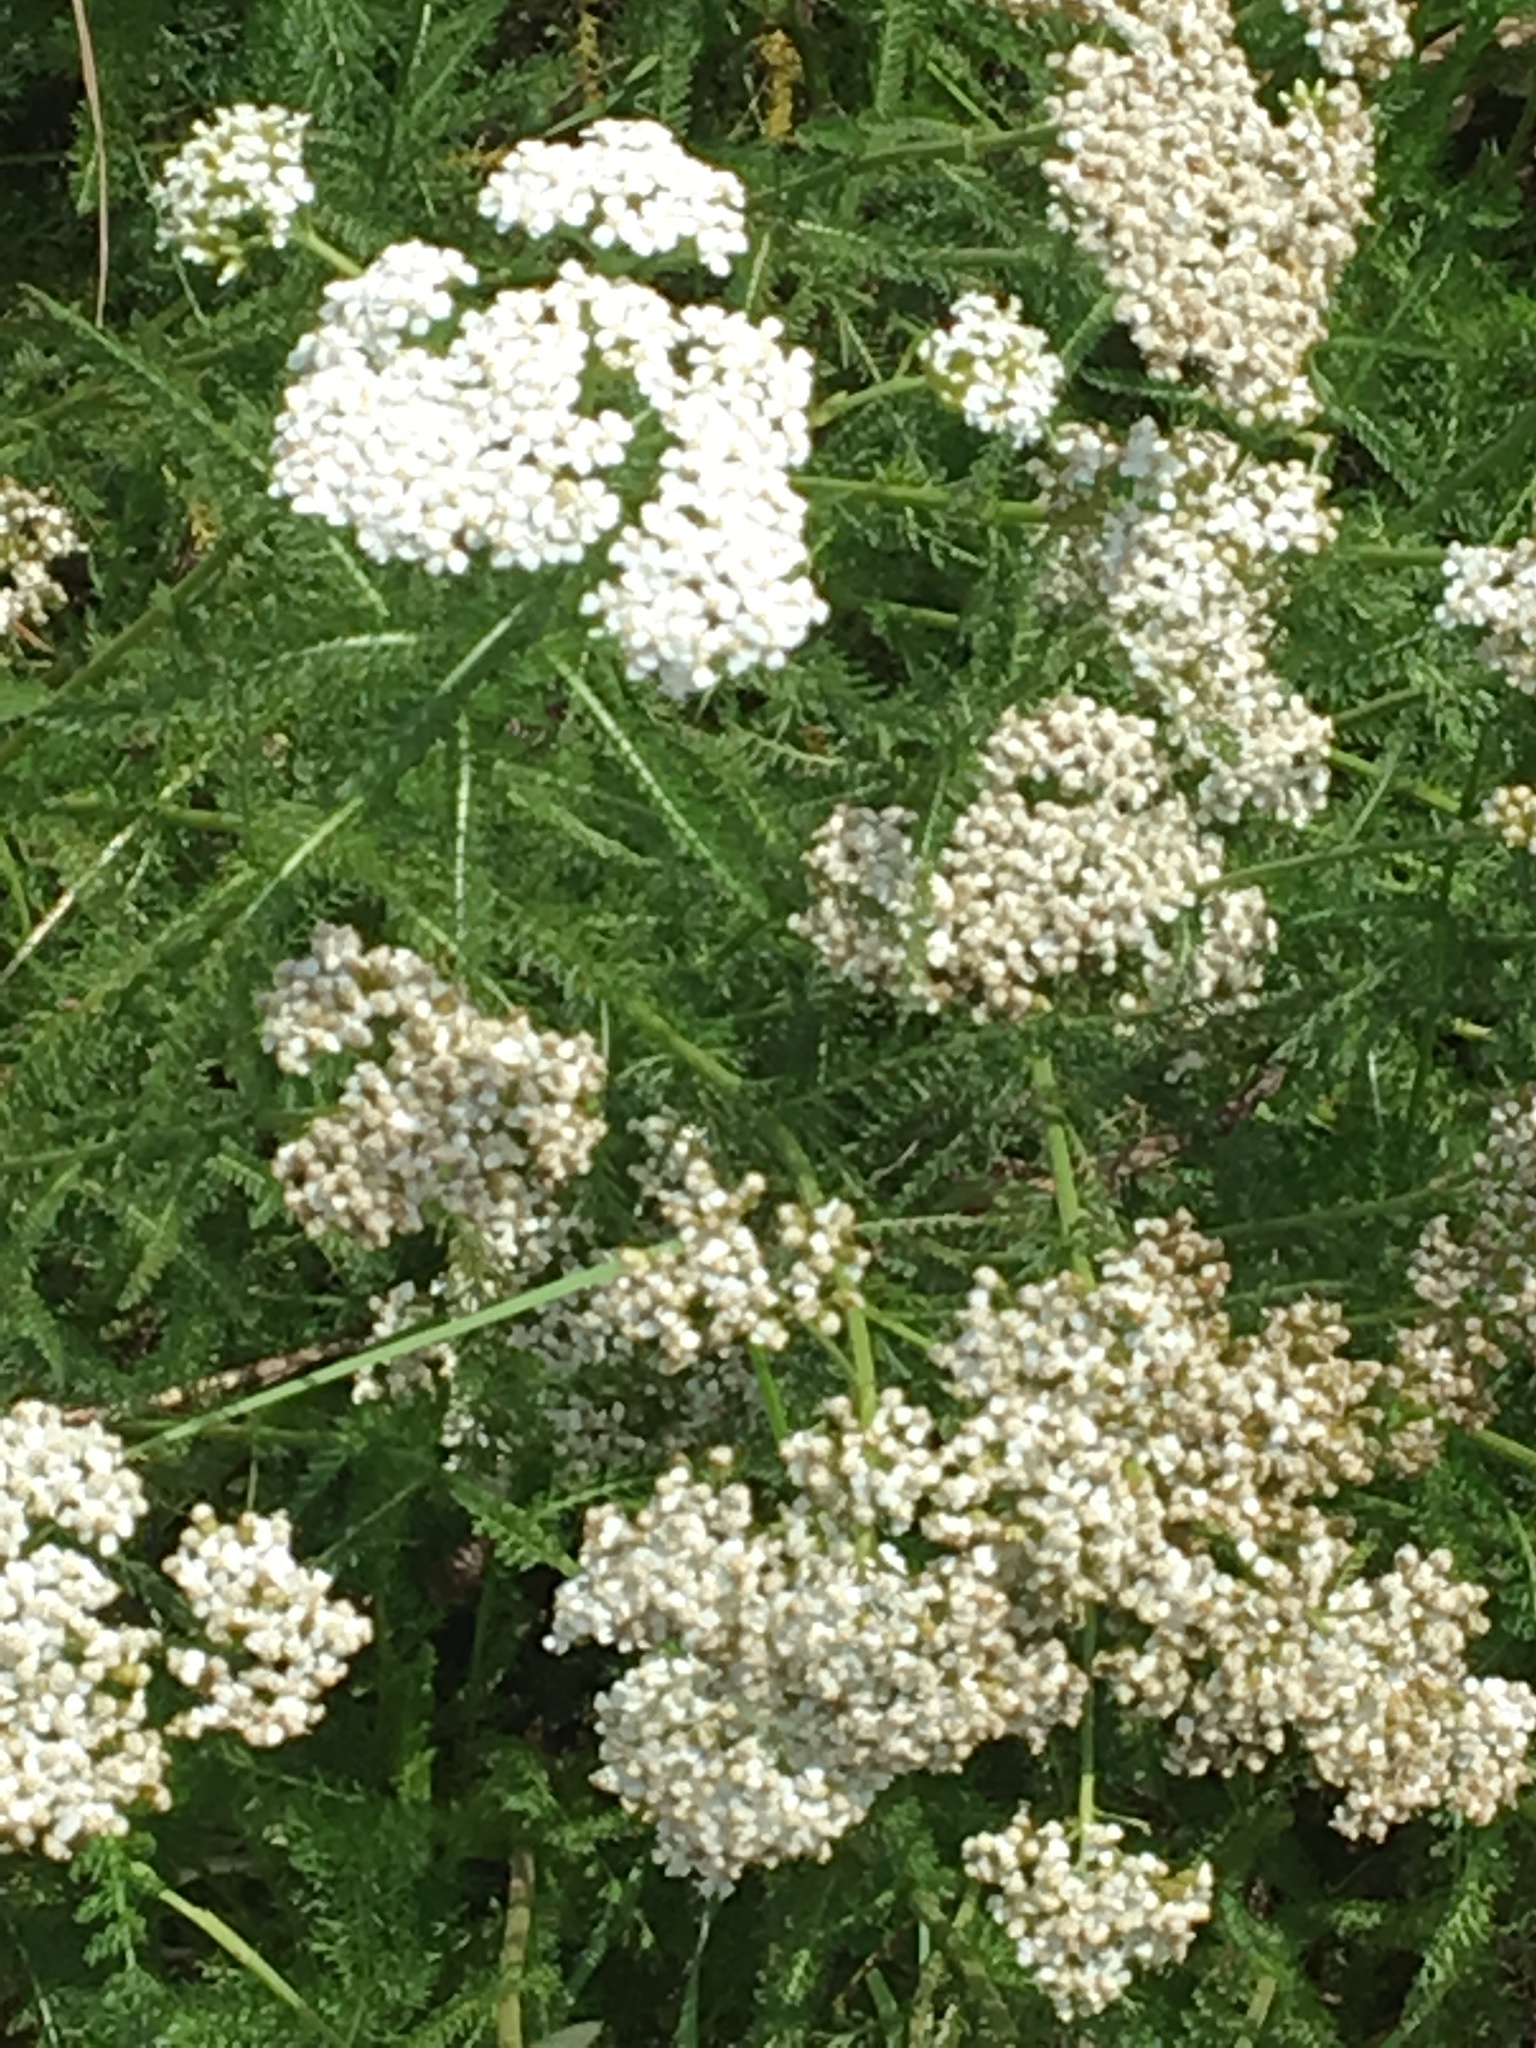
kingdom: Plantae
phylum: Tracheophyta
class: Magnoliopsida
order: Asterales
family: Asteraceae
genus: Achillea
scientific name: Achillea millefolium
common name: Yarrow
